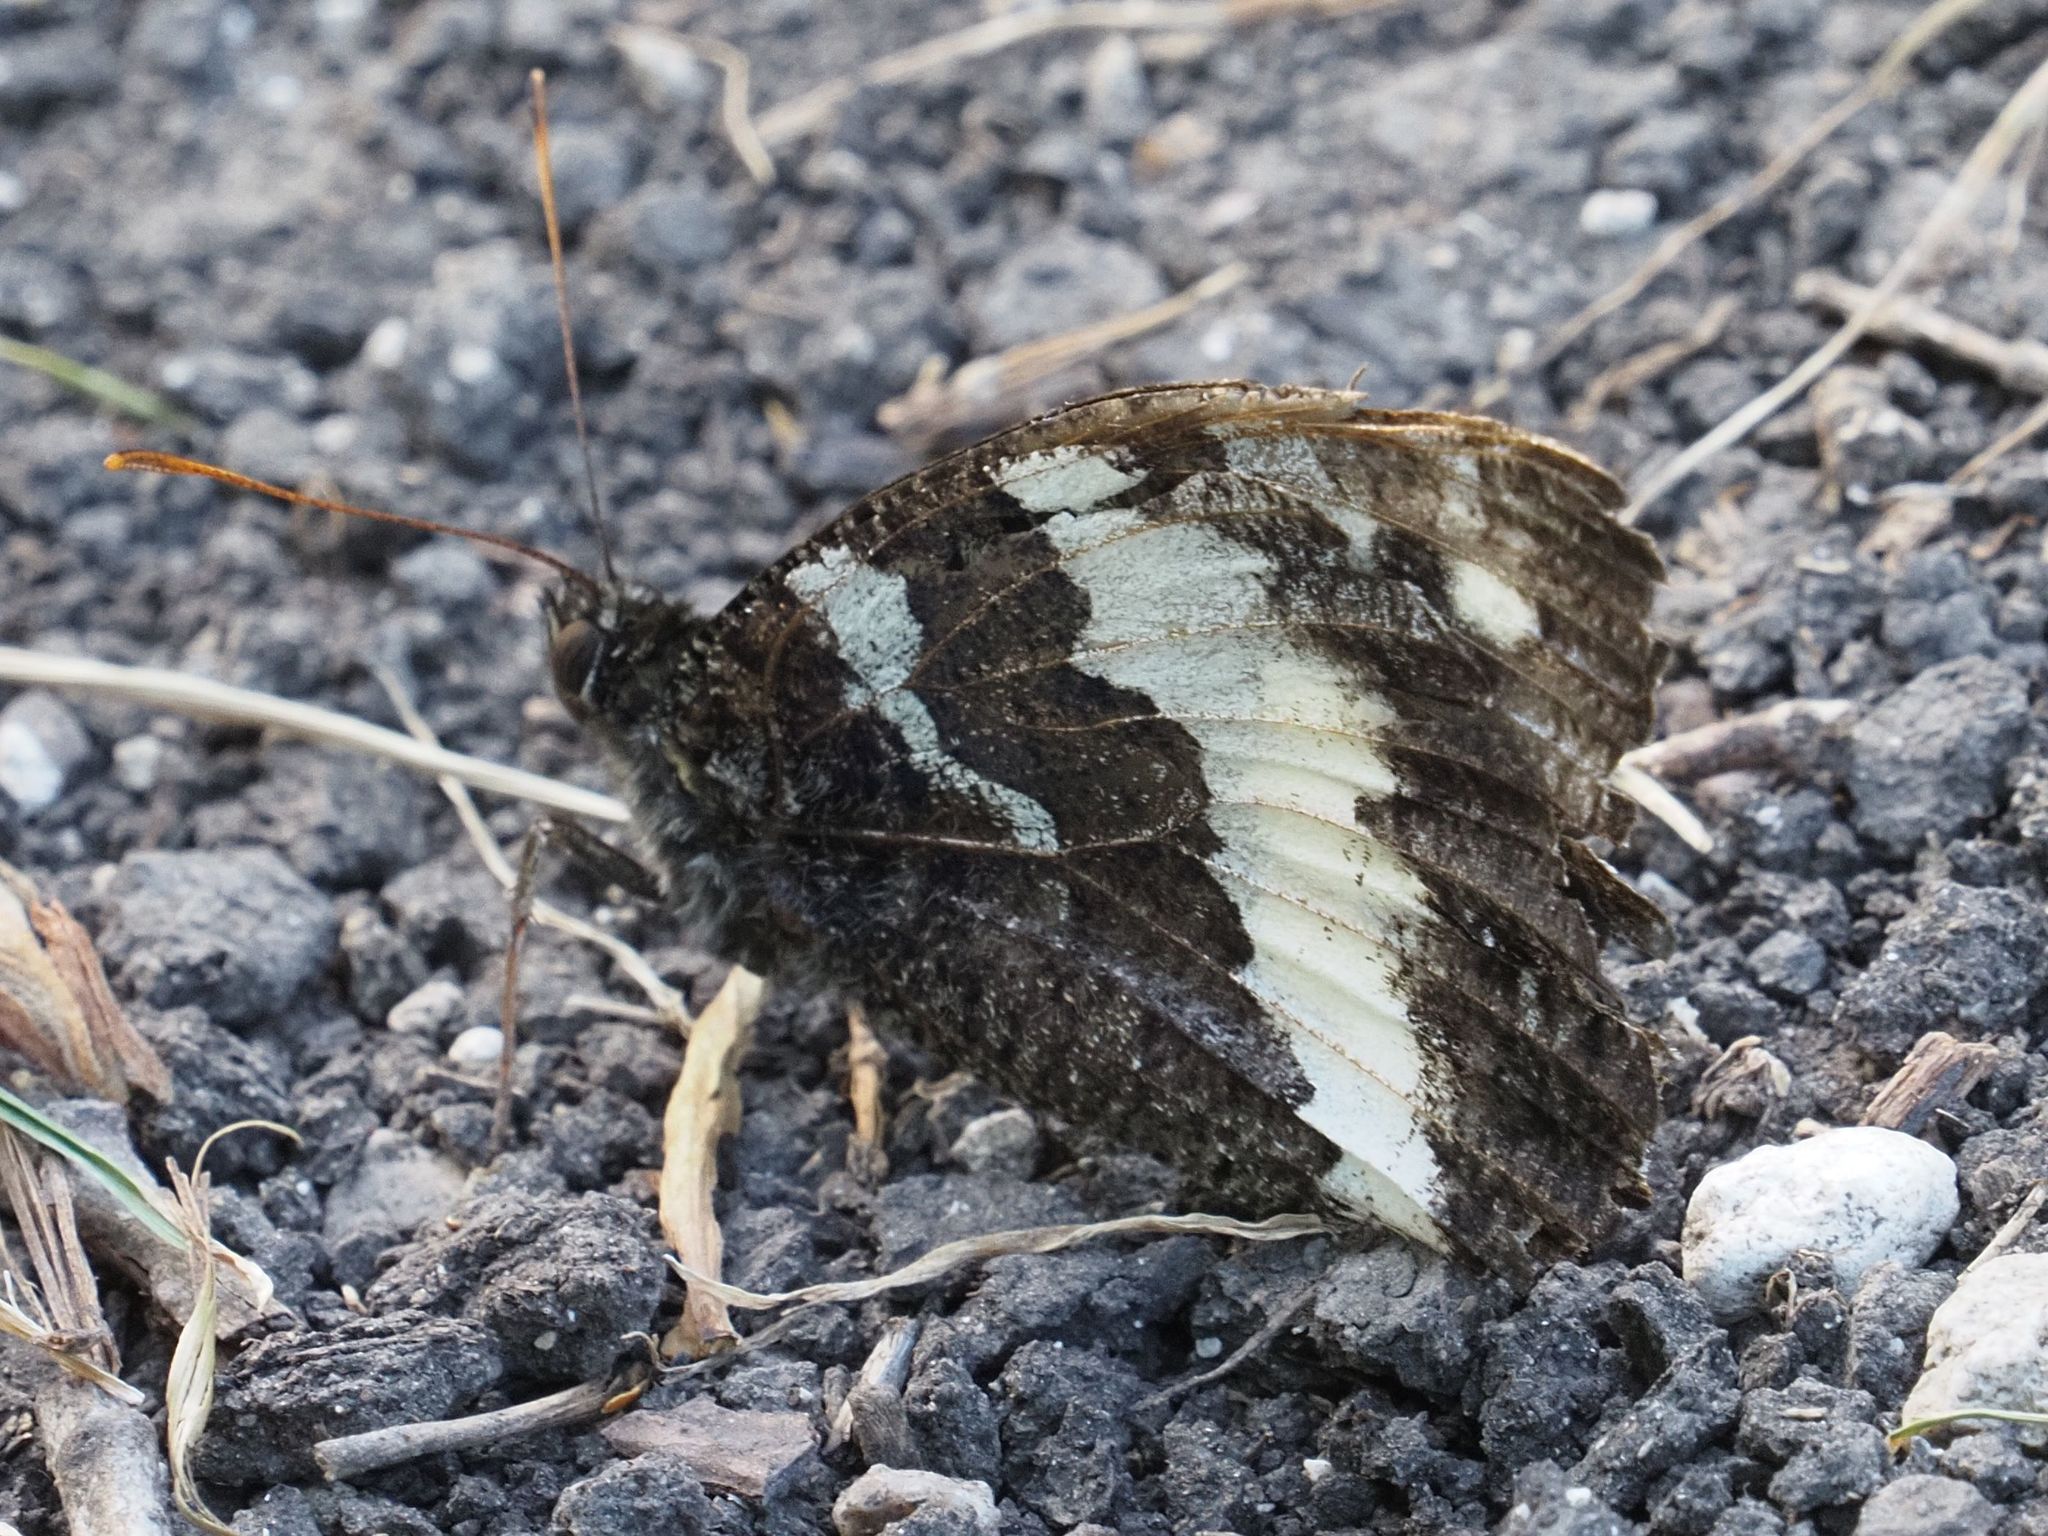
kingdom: Animalia
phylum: Arthropoda
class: Insecta
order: Lepidoptera
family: Lycaenidae
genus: Loweia
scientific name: Loweia tityrus
